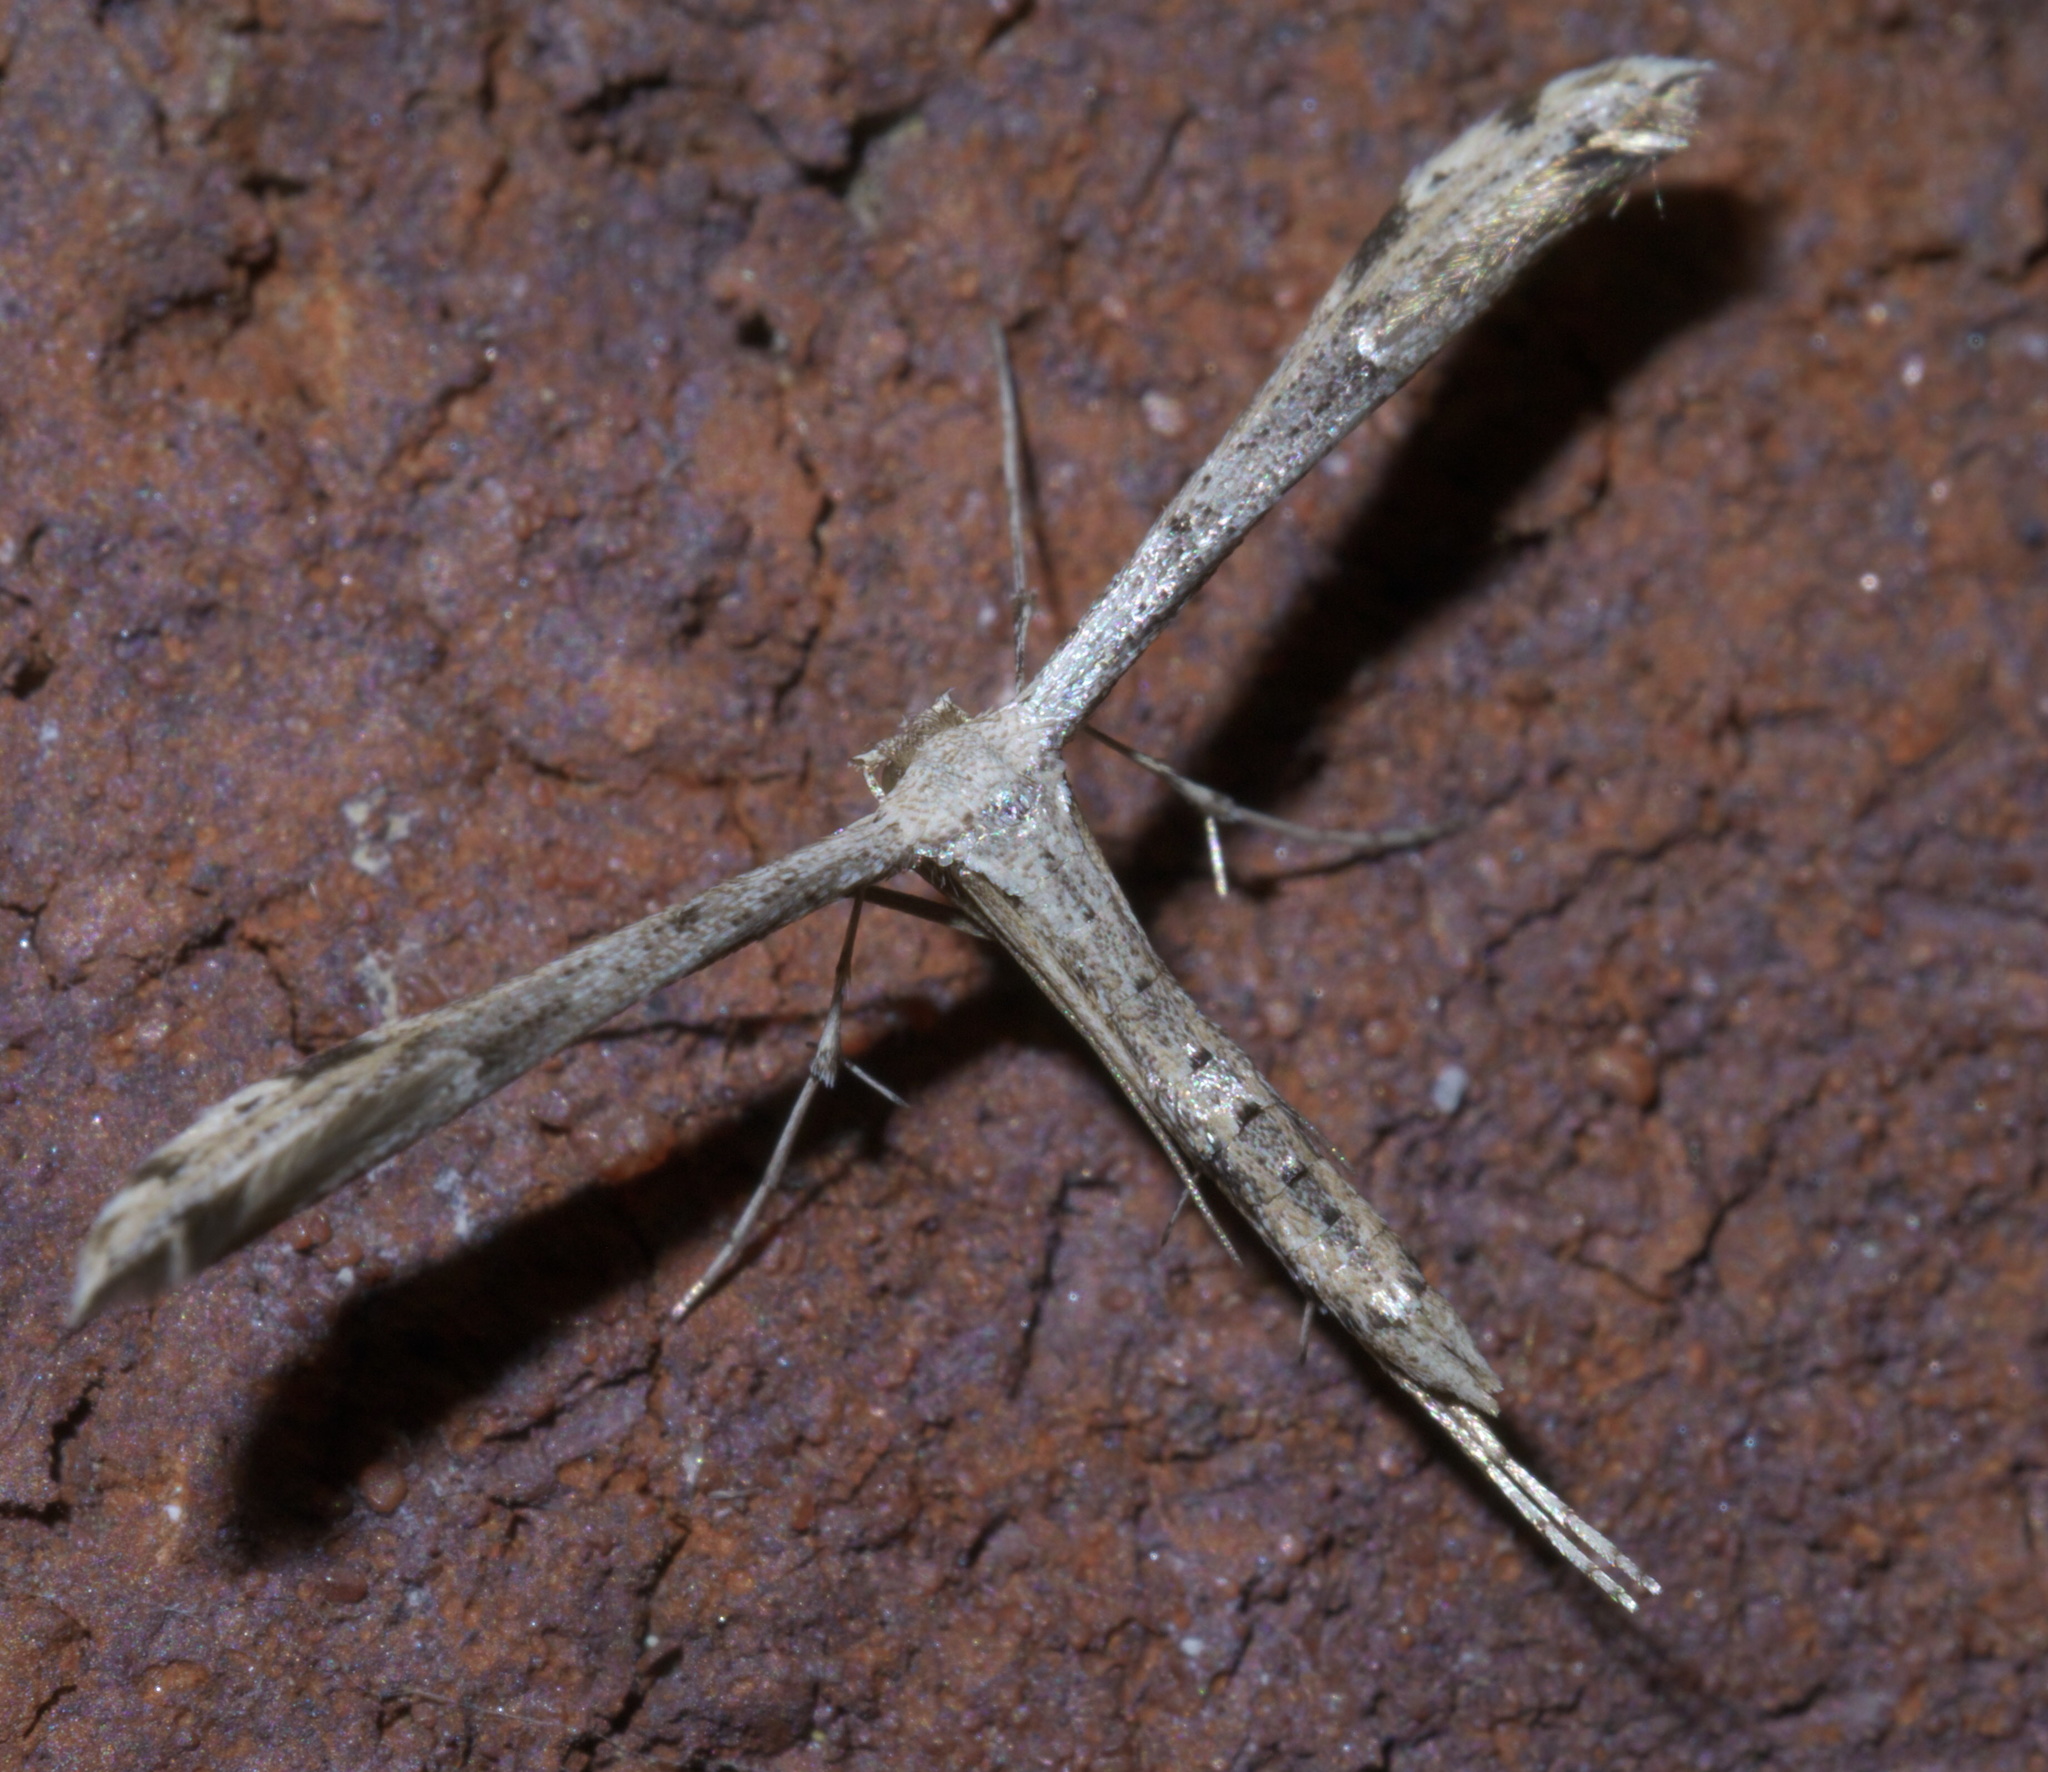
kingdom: Animalia
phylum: Arthropoda
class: Insecta
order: Lepidoptera
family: Pterophoridae
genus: Adaina
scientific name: Adaina ambrosiae
